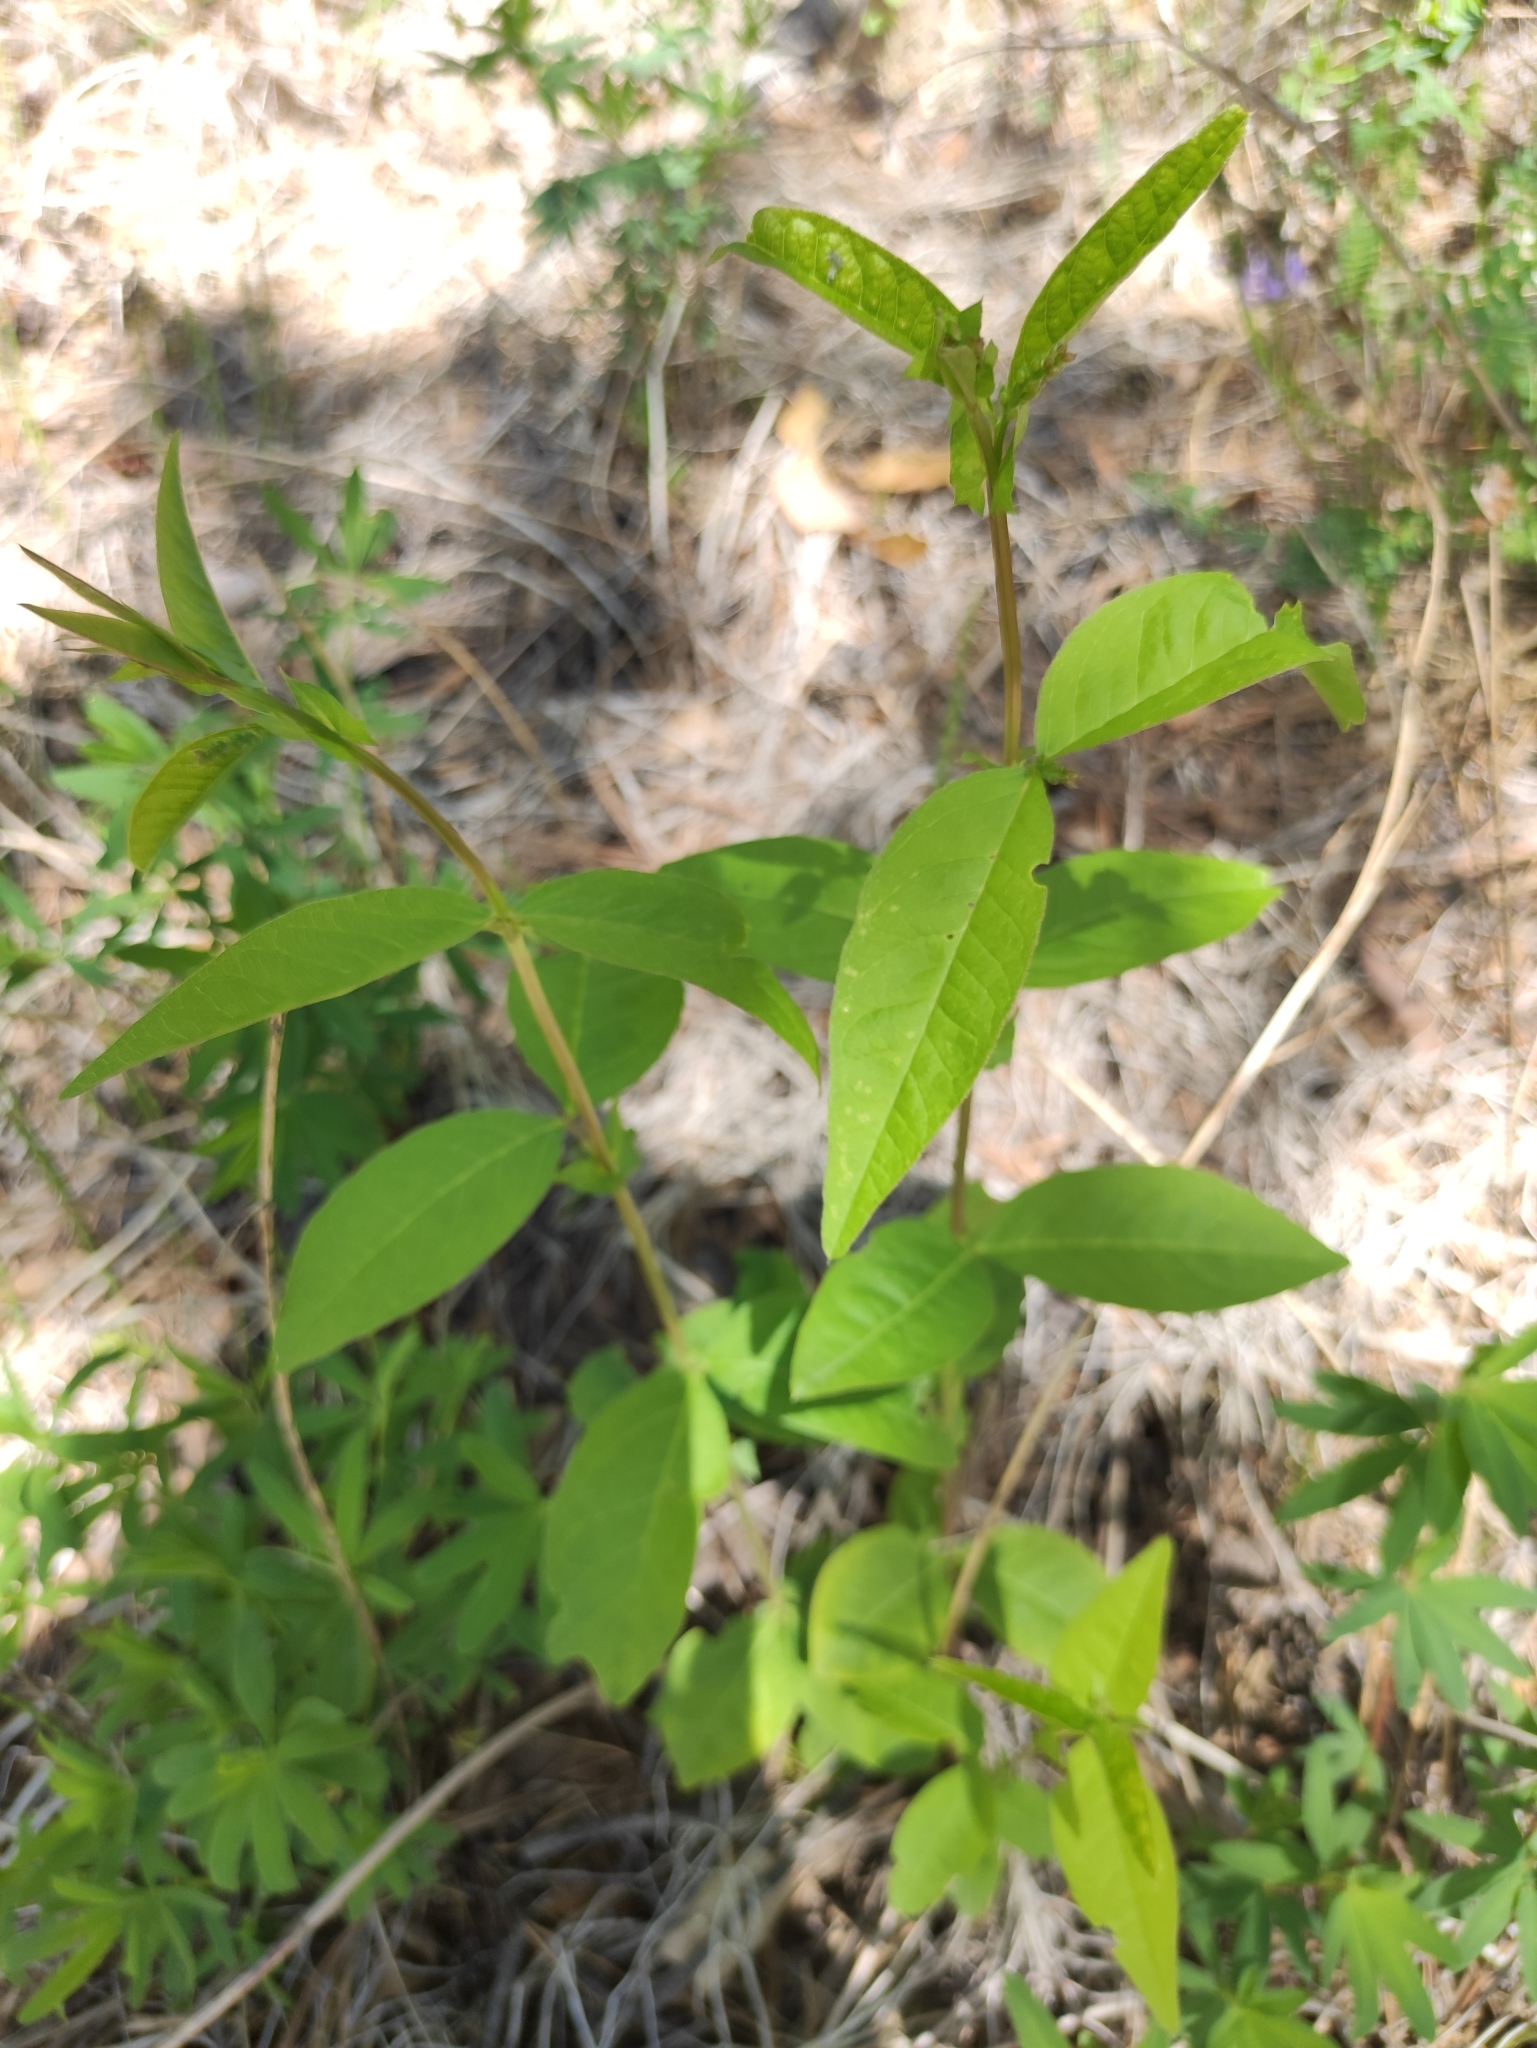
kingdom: Plantae
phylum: Tracheophyta
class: Magnoliopsida
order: Fabales
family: Fabaceae
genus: Vicia
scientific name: Vicia unijuga
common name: Two-leaf vetch
